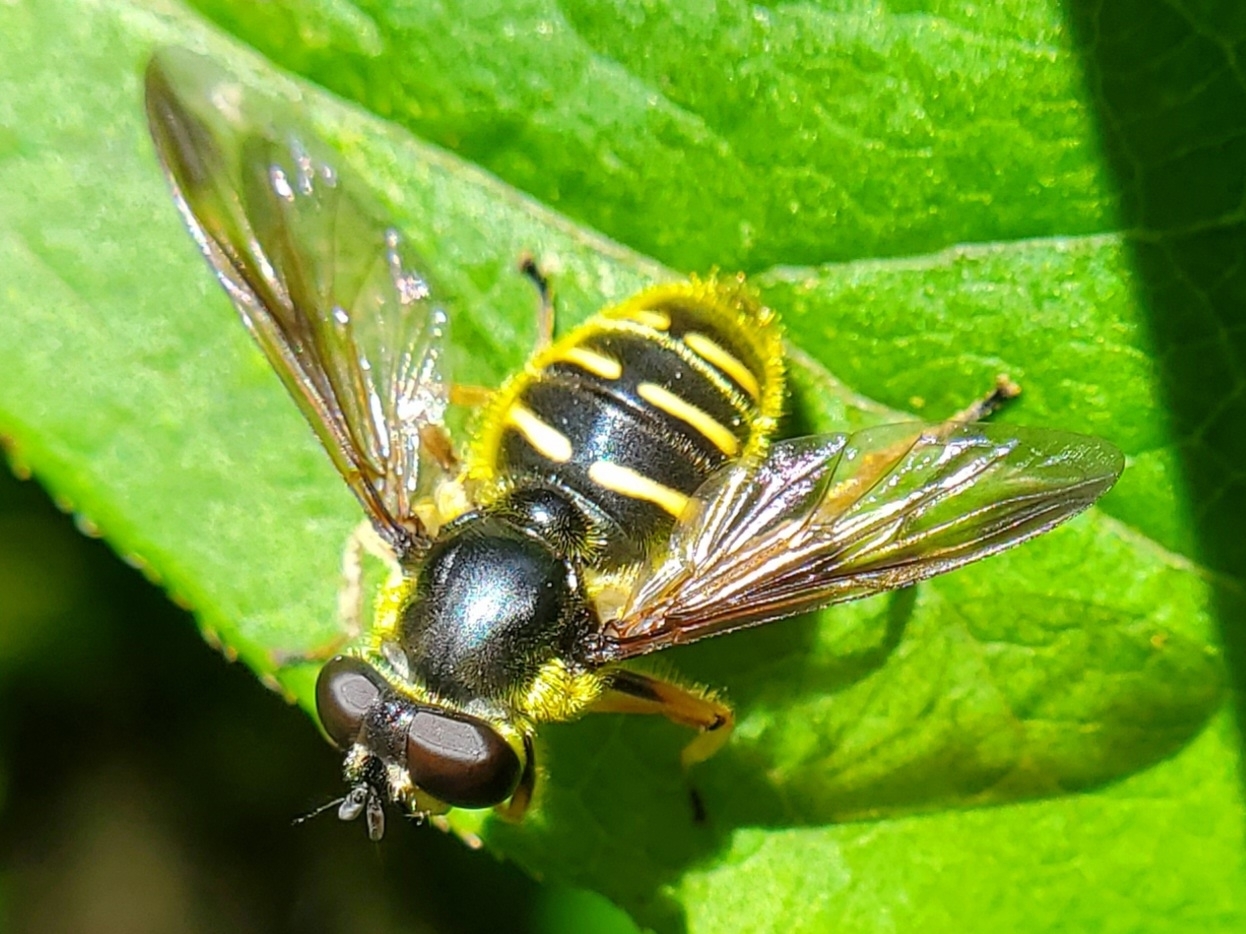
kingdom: Animalia
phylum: Arthropoda
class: Insecta
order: Diptera
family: Syrphidae
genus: Sericomyia
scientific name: Sericomyia chrysotoxoides
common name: Oblique-banded pond fly
